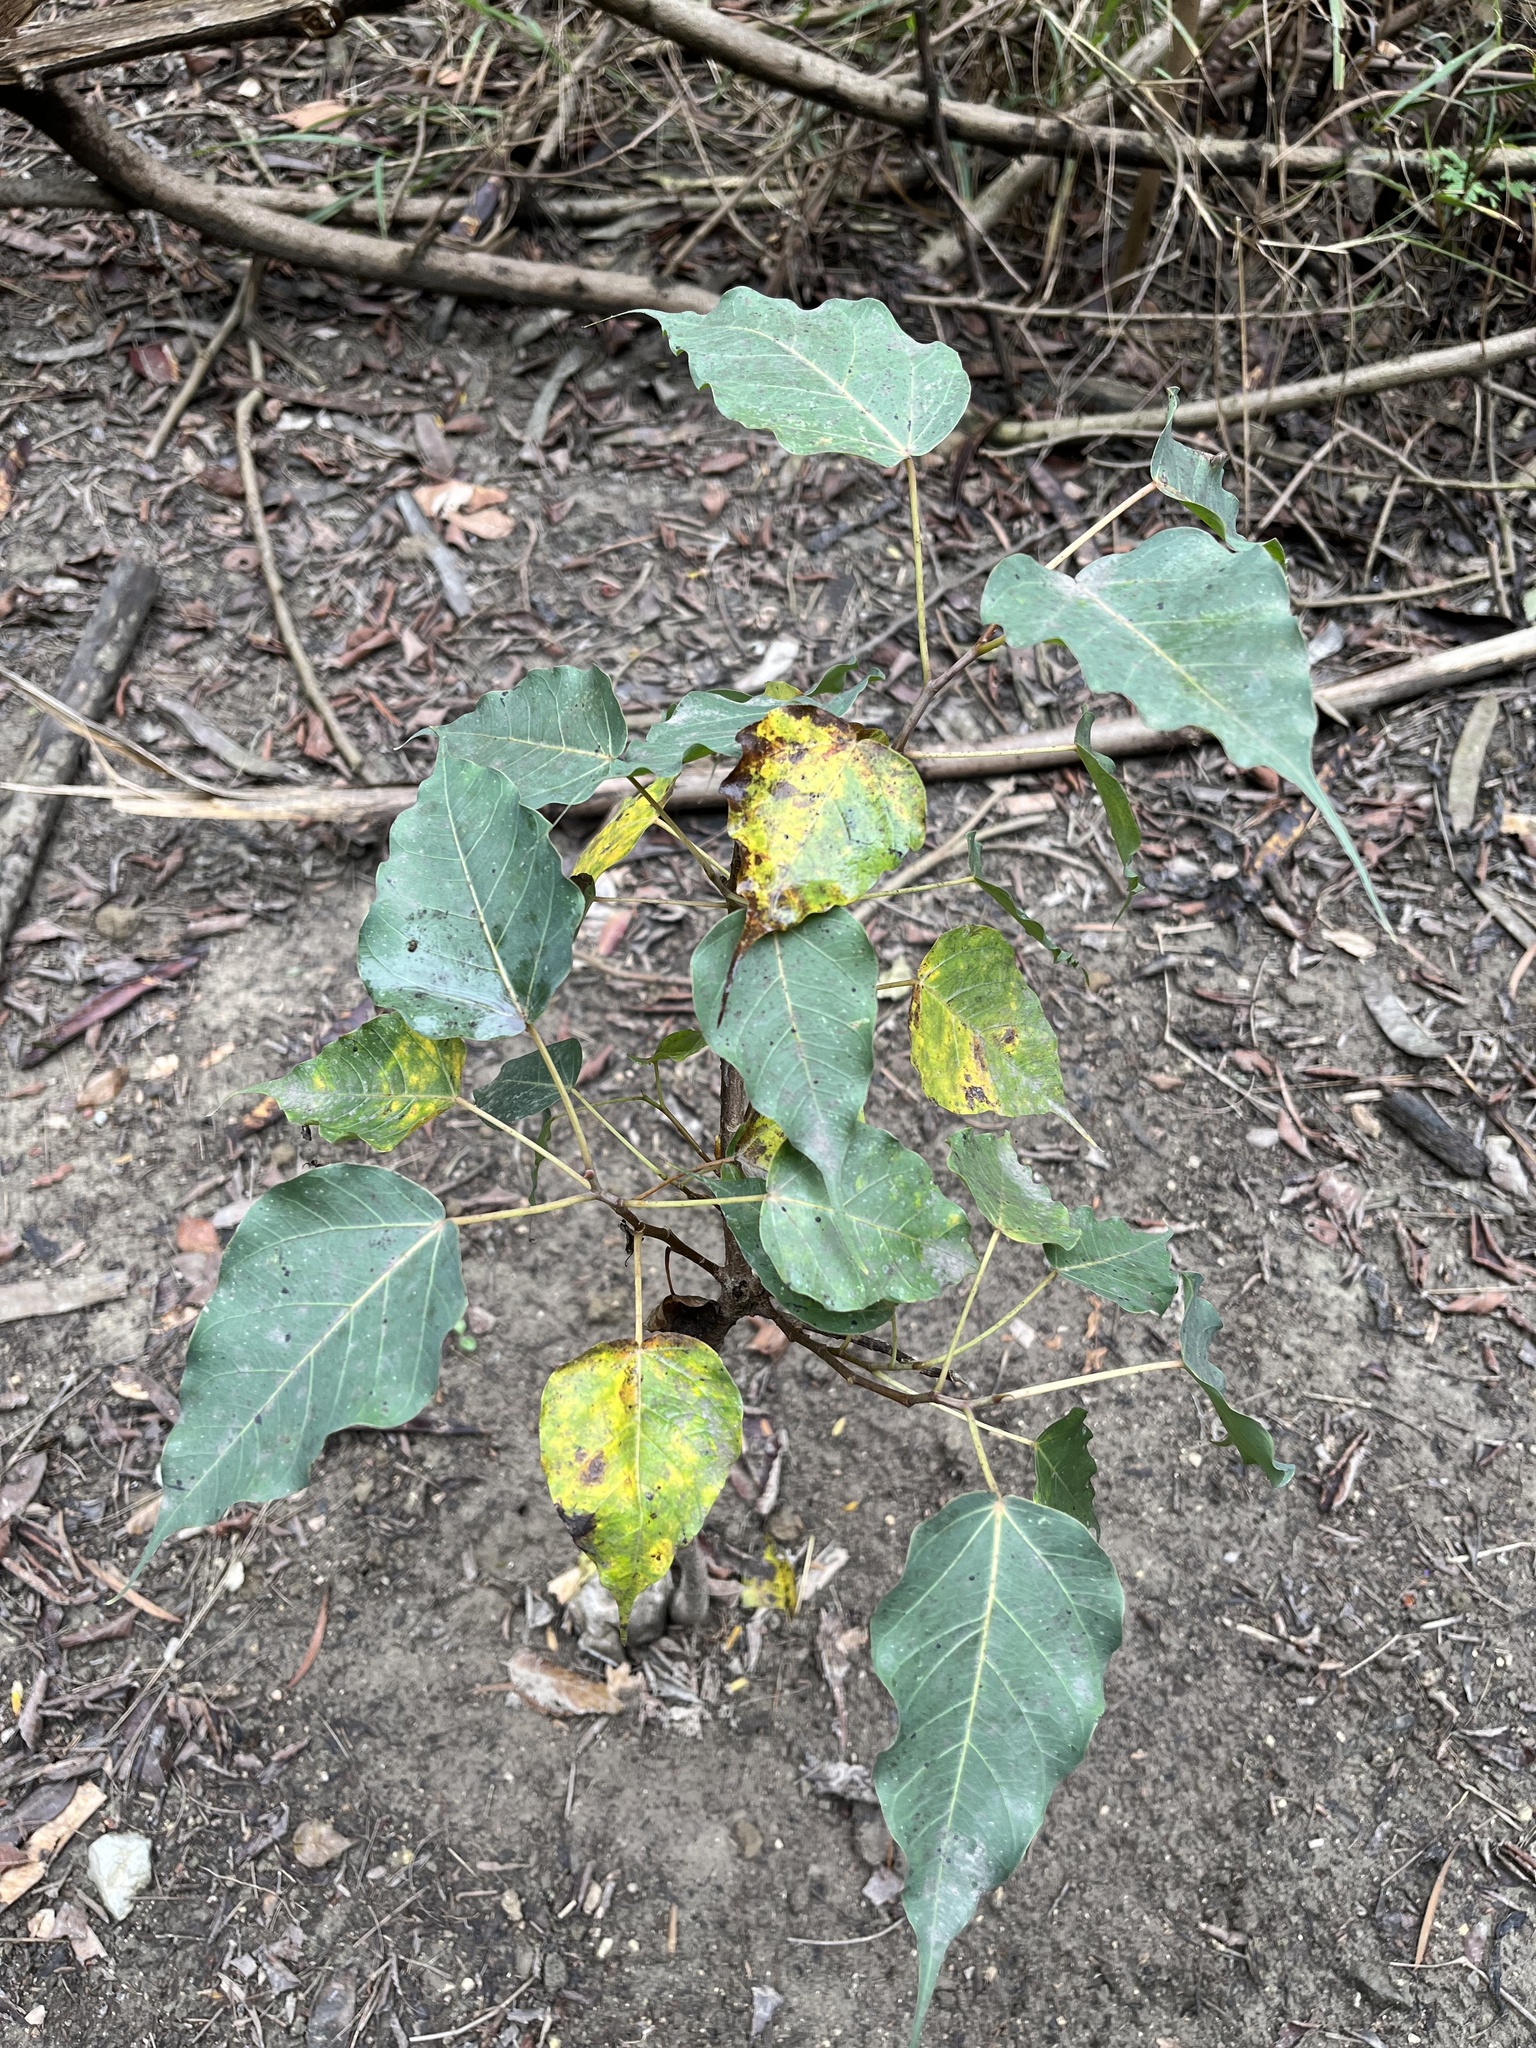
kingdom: Plantae
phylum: Tracheophyta
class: Magnoliopsida
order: Rosales
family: Moraceae
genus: Ficus
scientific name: Ficus religiosa
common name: Bodhi tree
